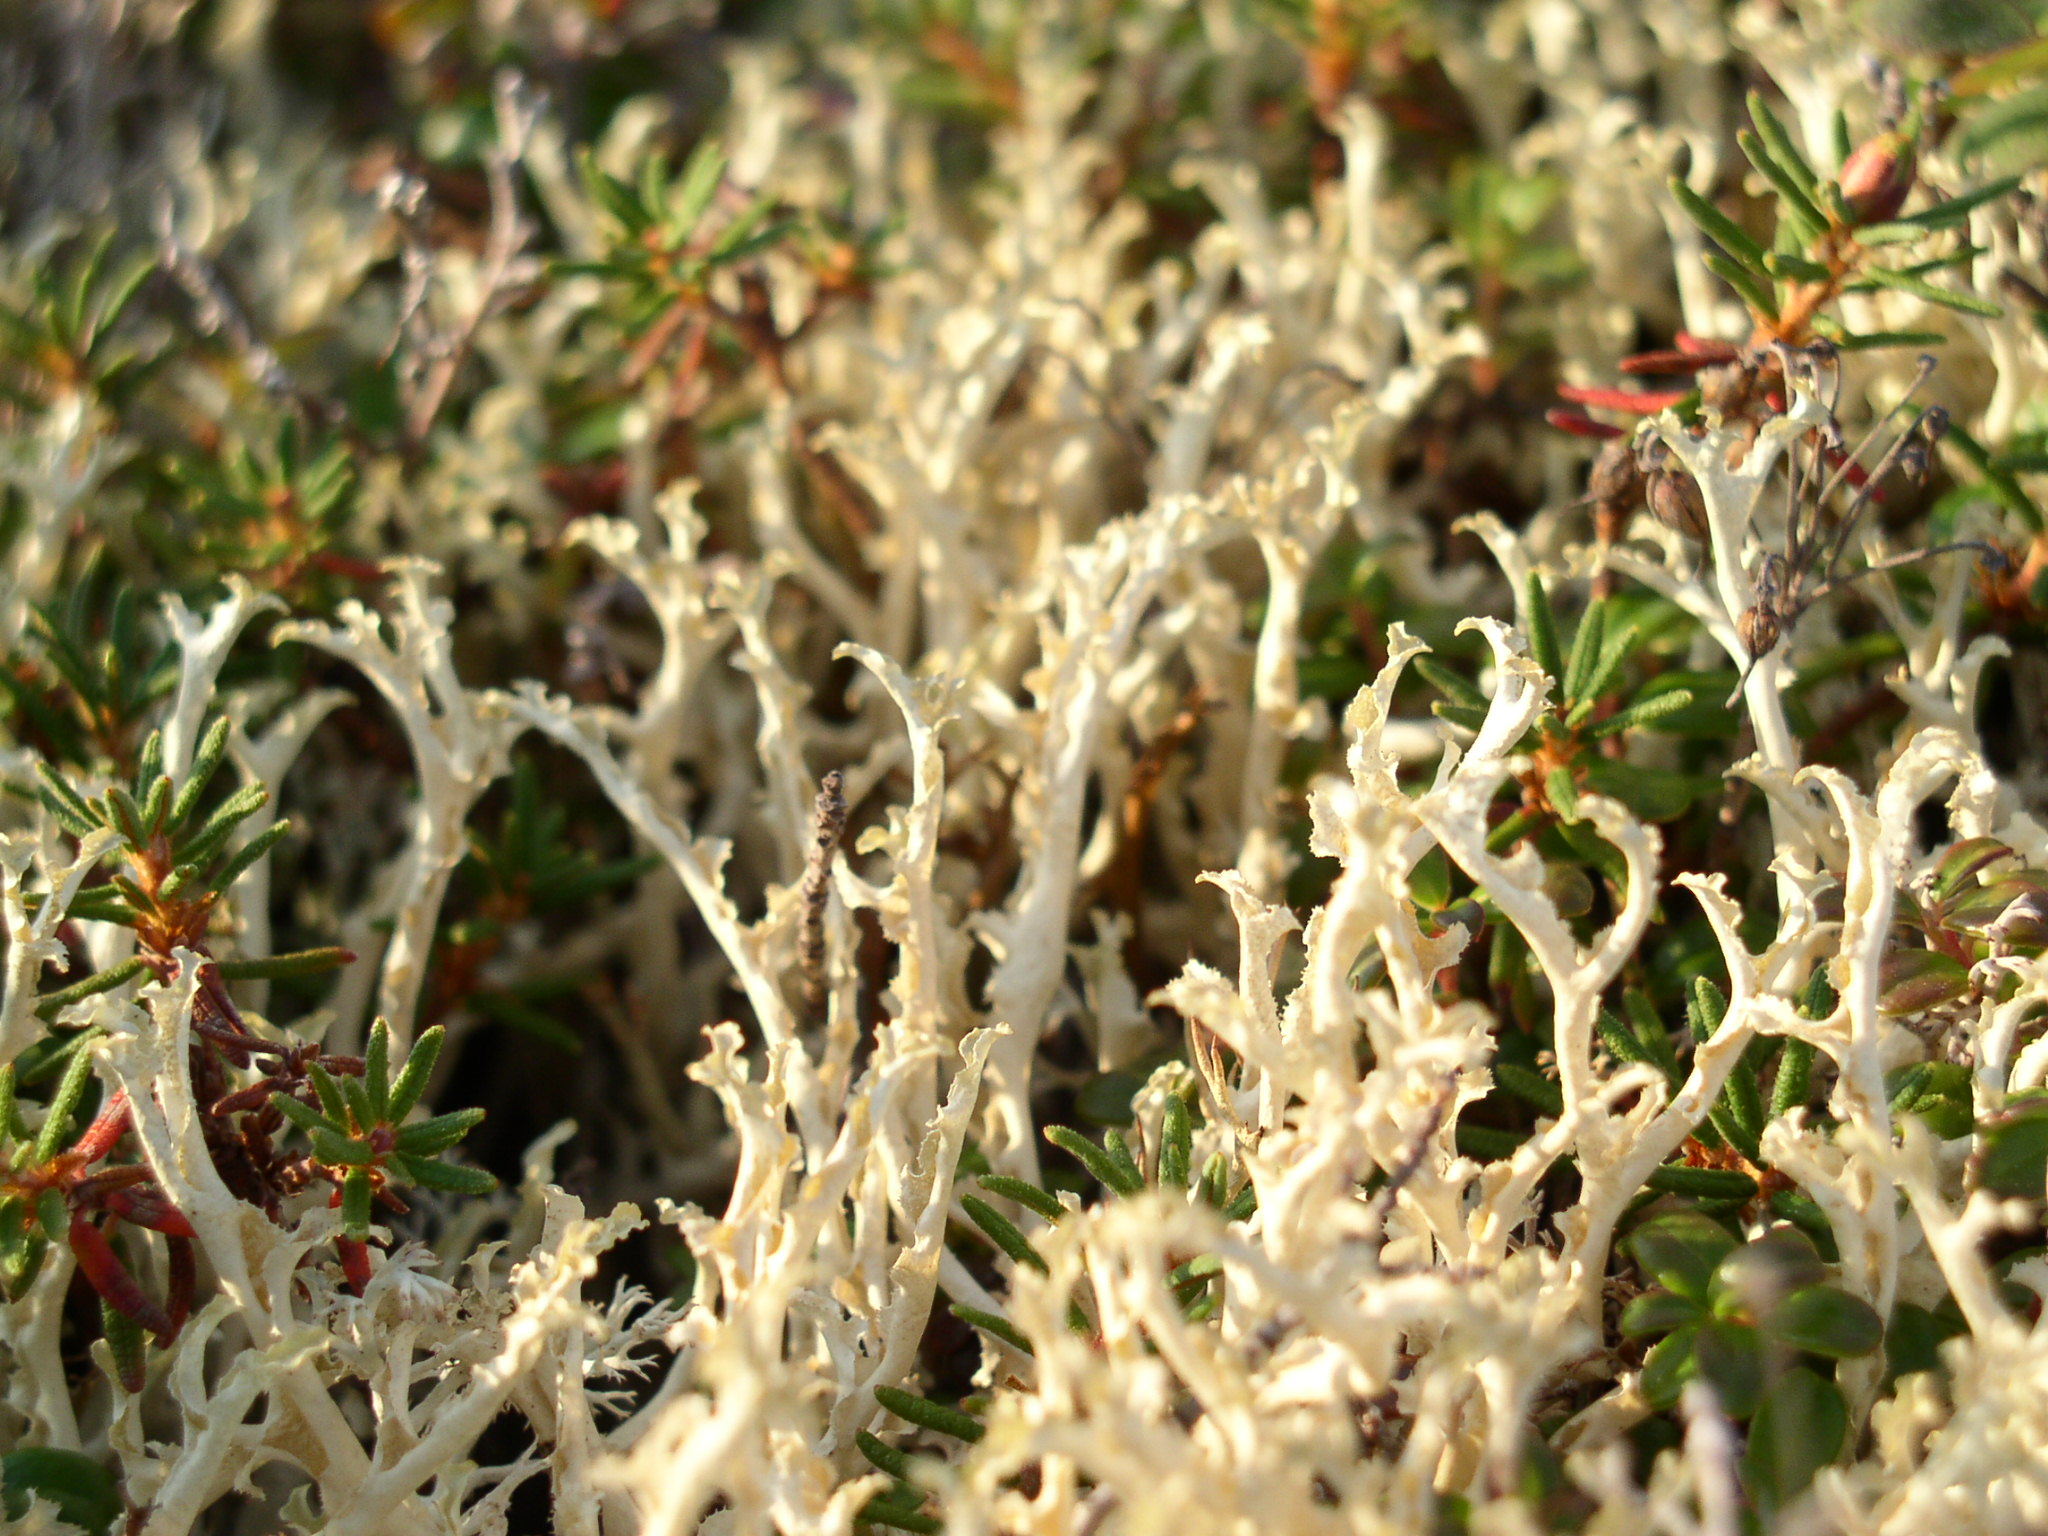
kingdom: Fungi
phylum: Ascomycota
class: Lecanoromycetes
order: Lecanorales
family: Parmeliaceae
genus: Nephromopsis
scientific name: Nephromopsis cucullata
